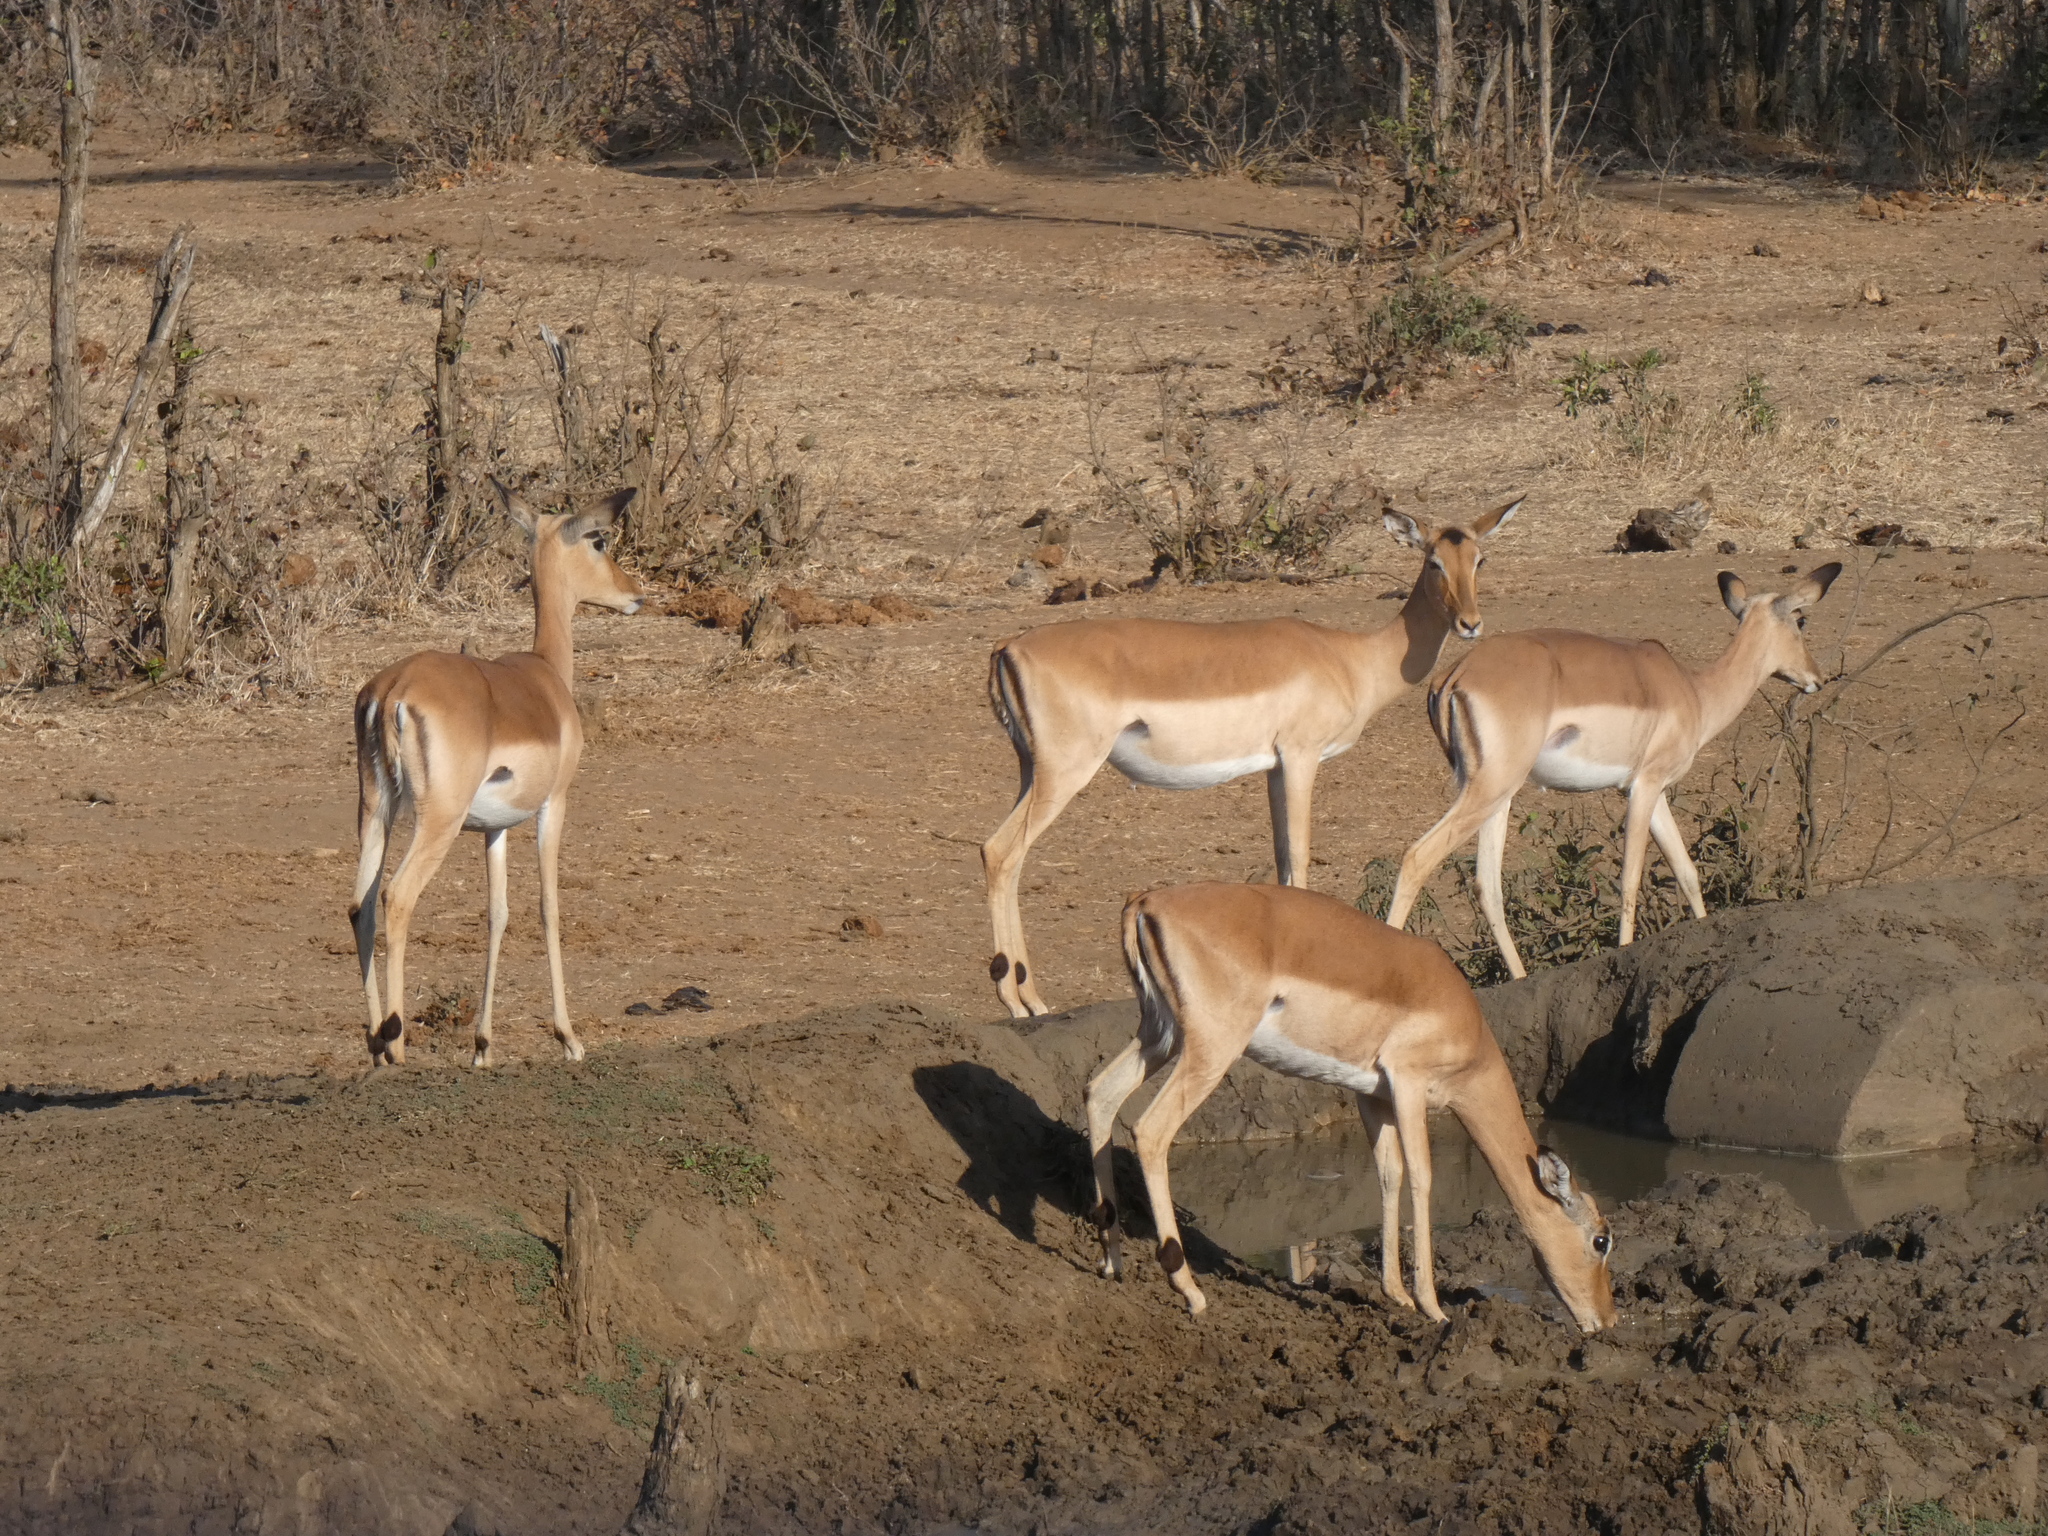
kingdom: Animalia
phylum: Chordata
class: Mammalia
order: Artiodactyla
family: Bovidae
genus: Aepyceros
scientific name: Aepyceros melampus
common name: Impala
